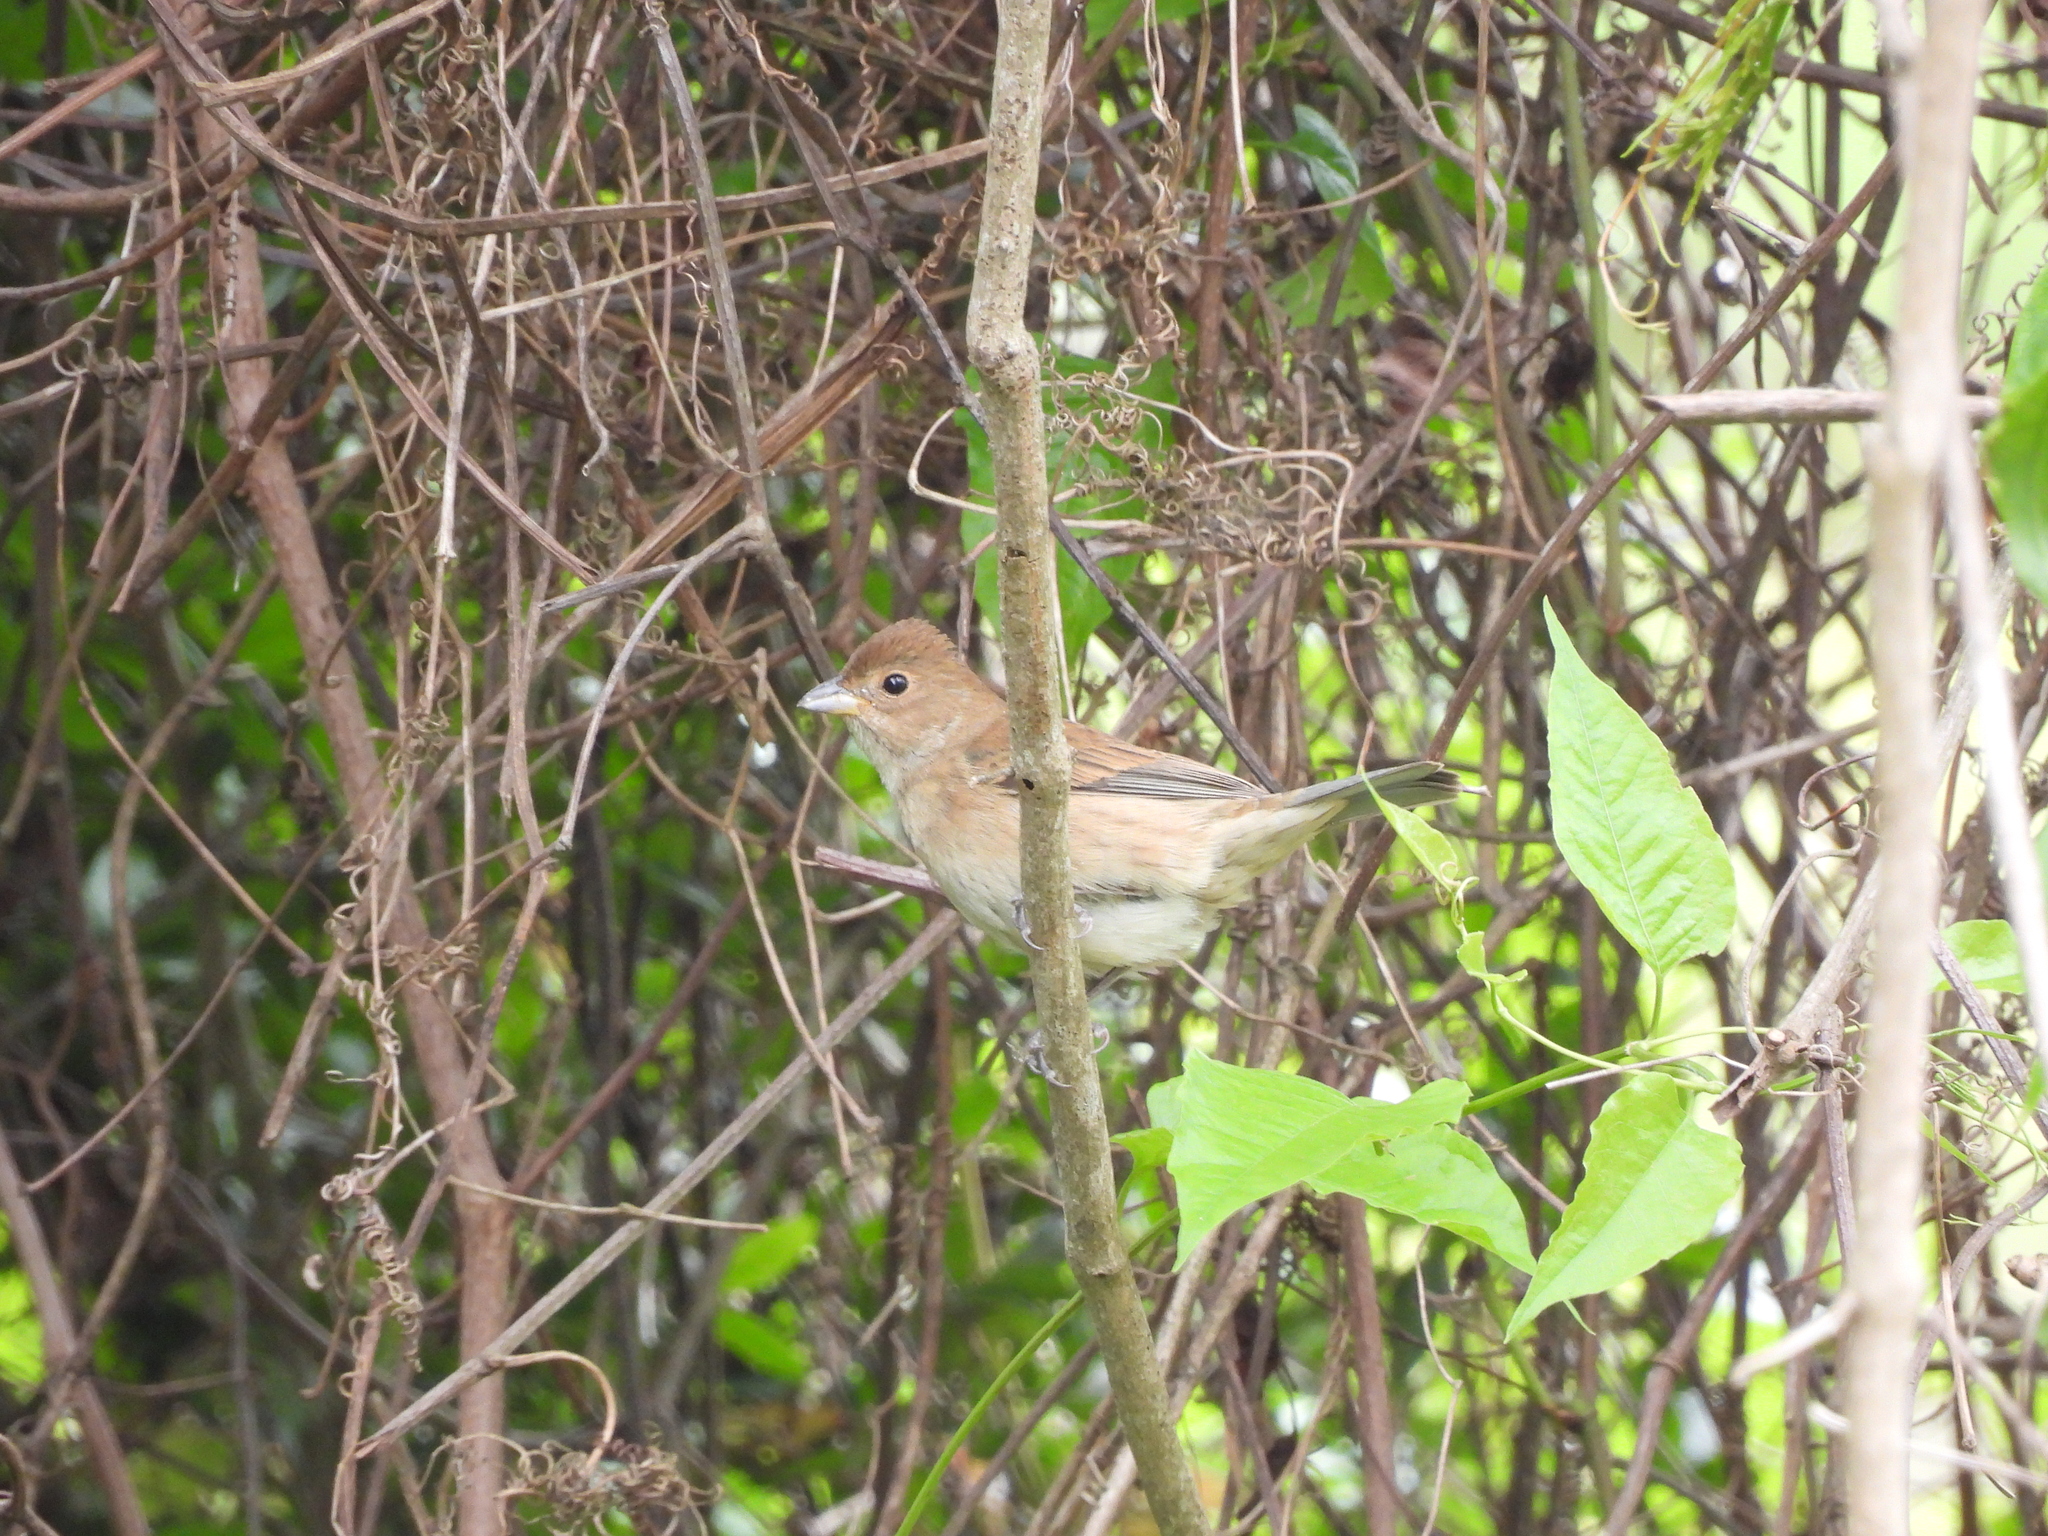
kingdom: Animalia
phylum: Chordata
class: Aves
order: Passeriformes
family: Cardinalidae
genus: Passerina
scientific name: Passerina cyanea
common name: Indigo bunting
